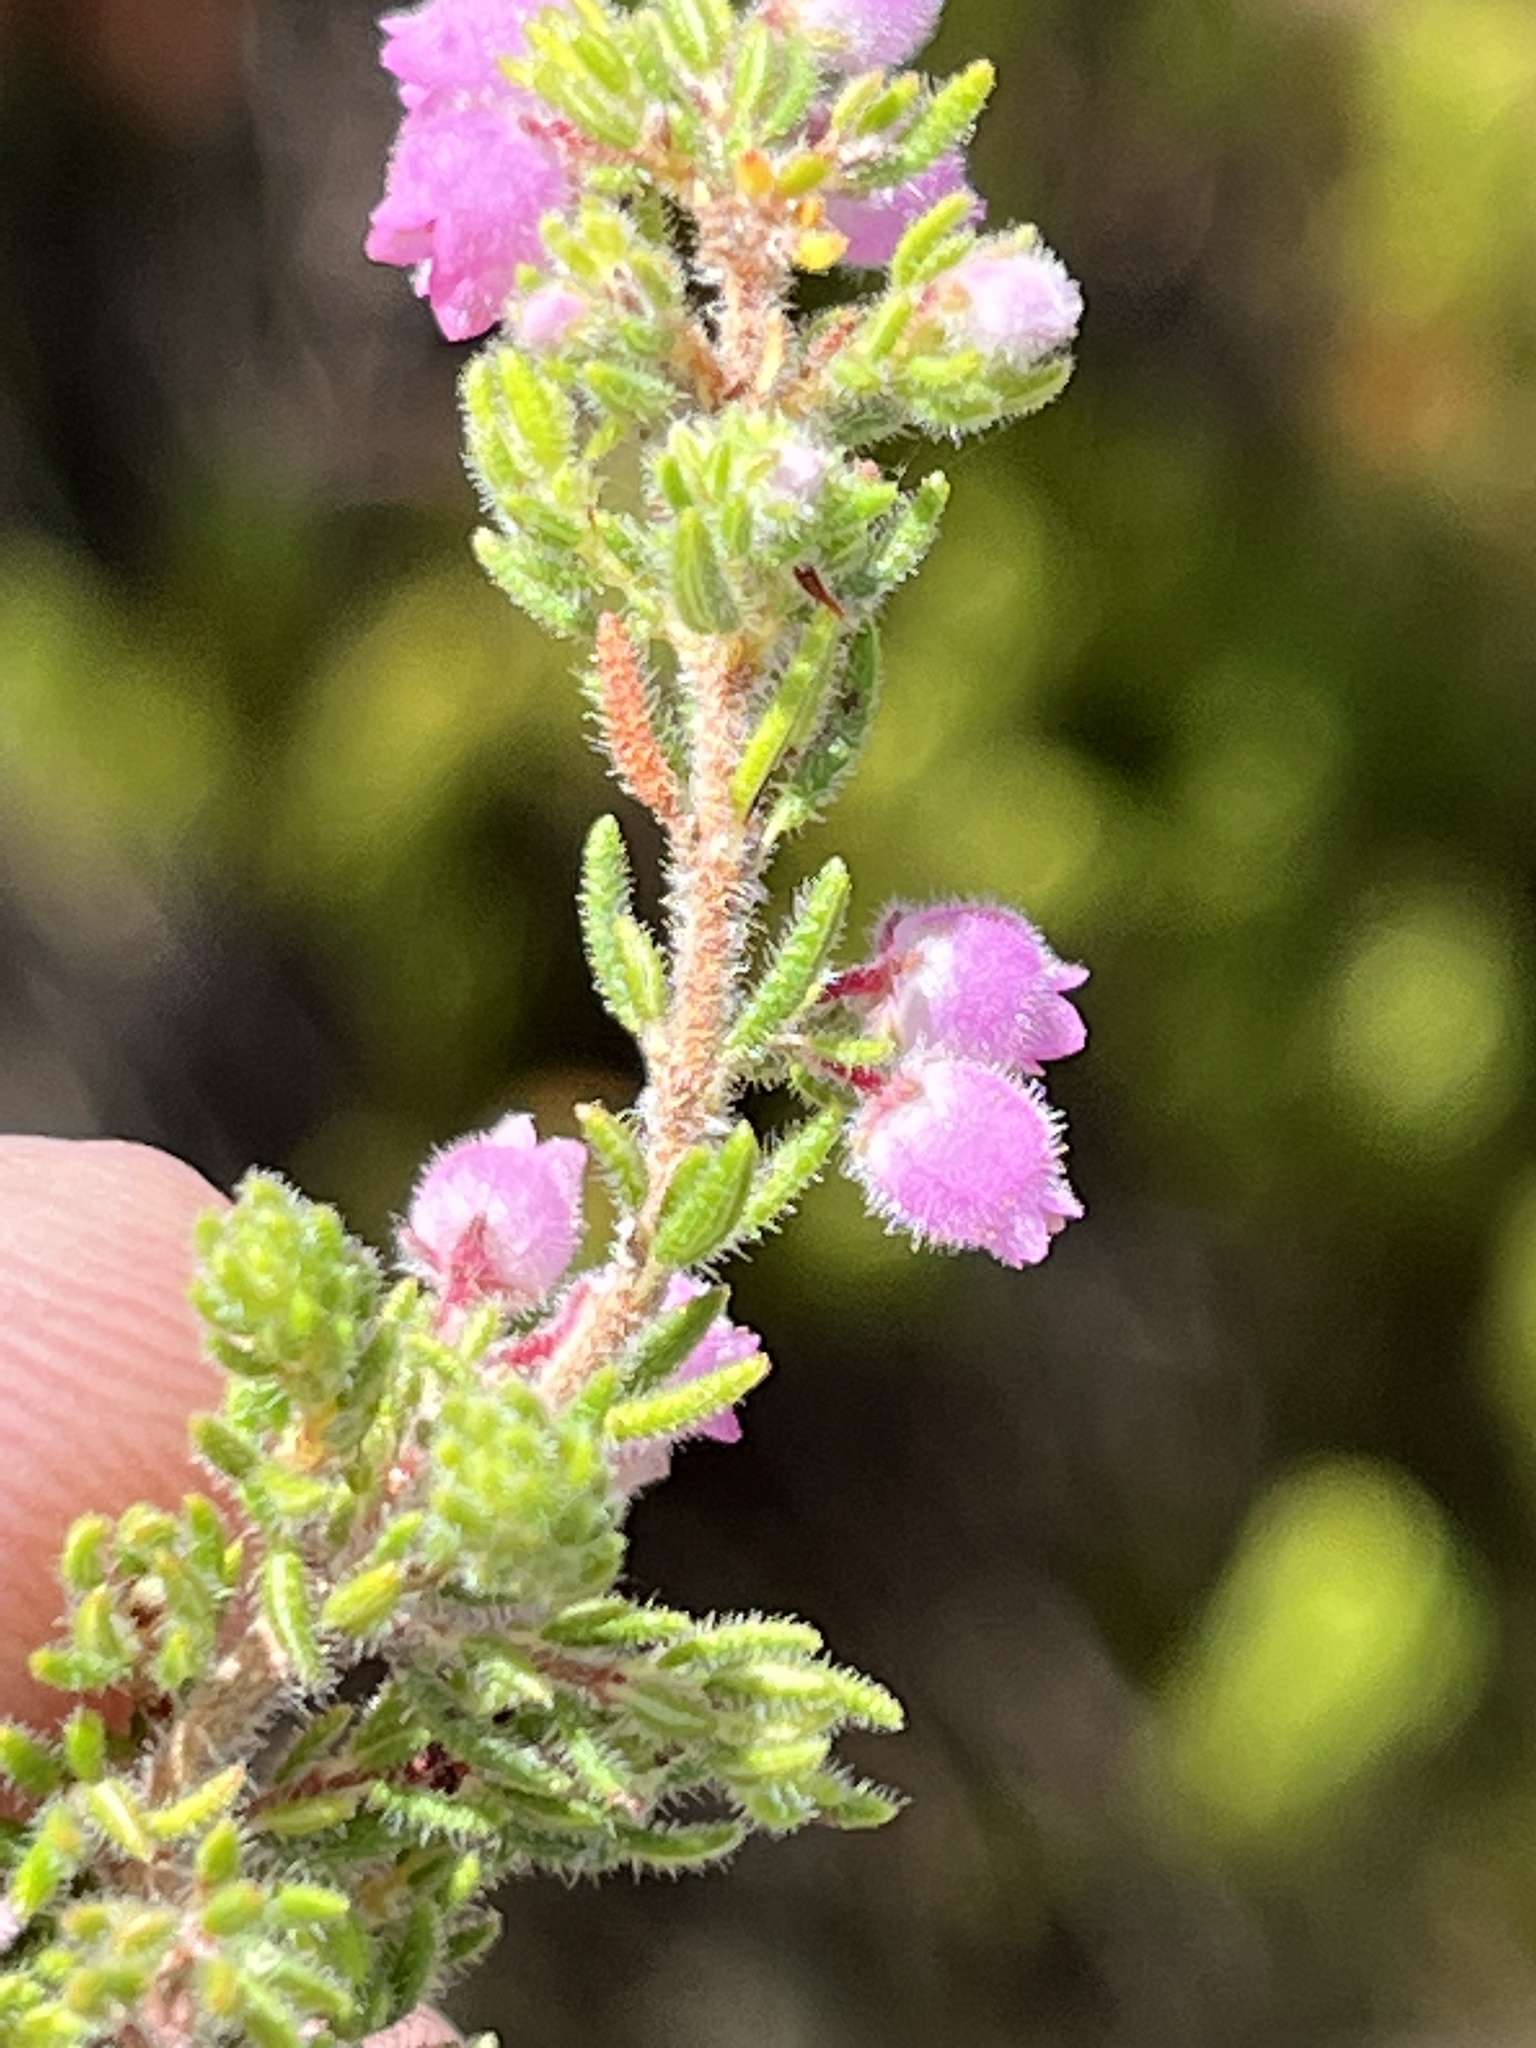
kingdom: Plantae
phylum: Tracheophyta
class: Magnoliopsida
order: Ericales
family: Ericaceae
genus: Erica
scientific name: Erica hirtiflora
